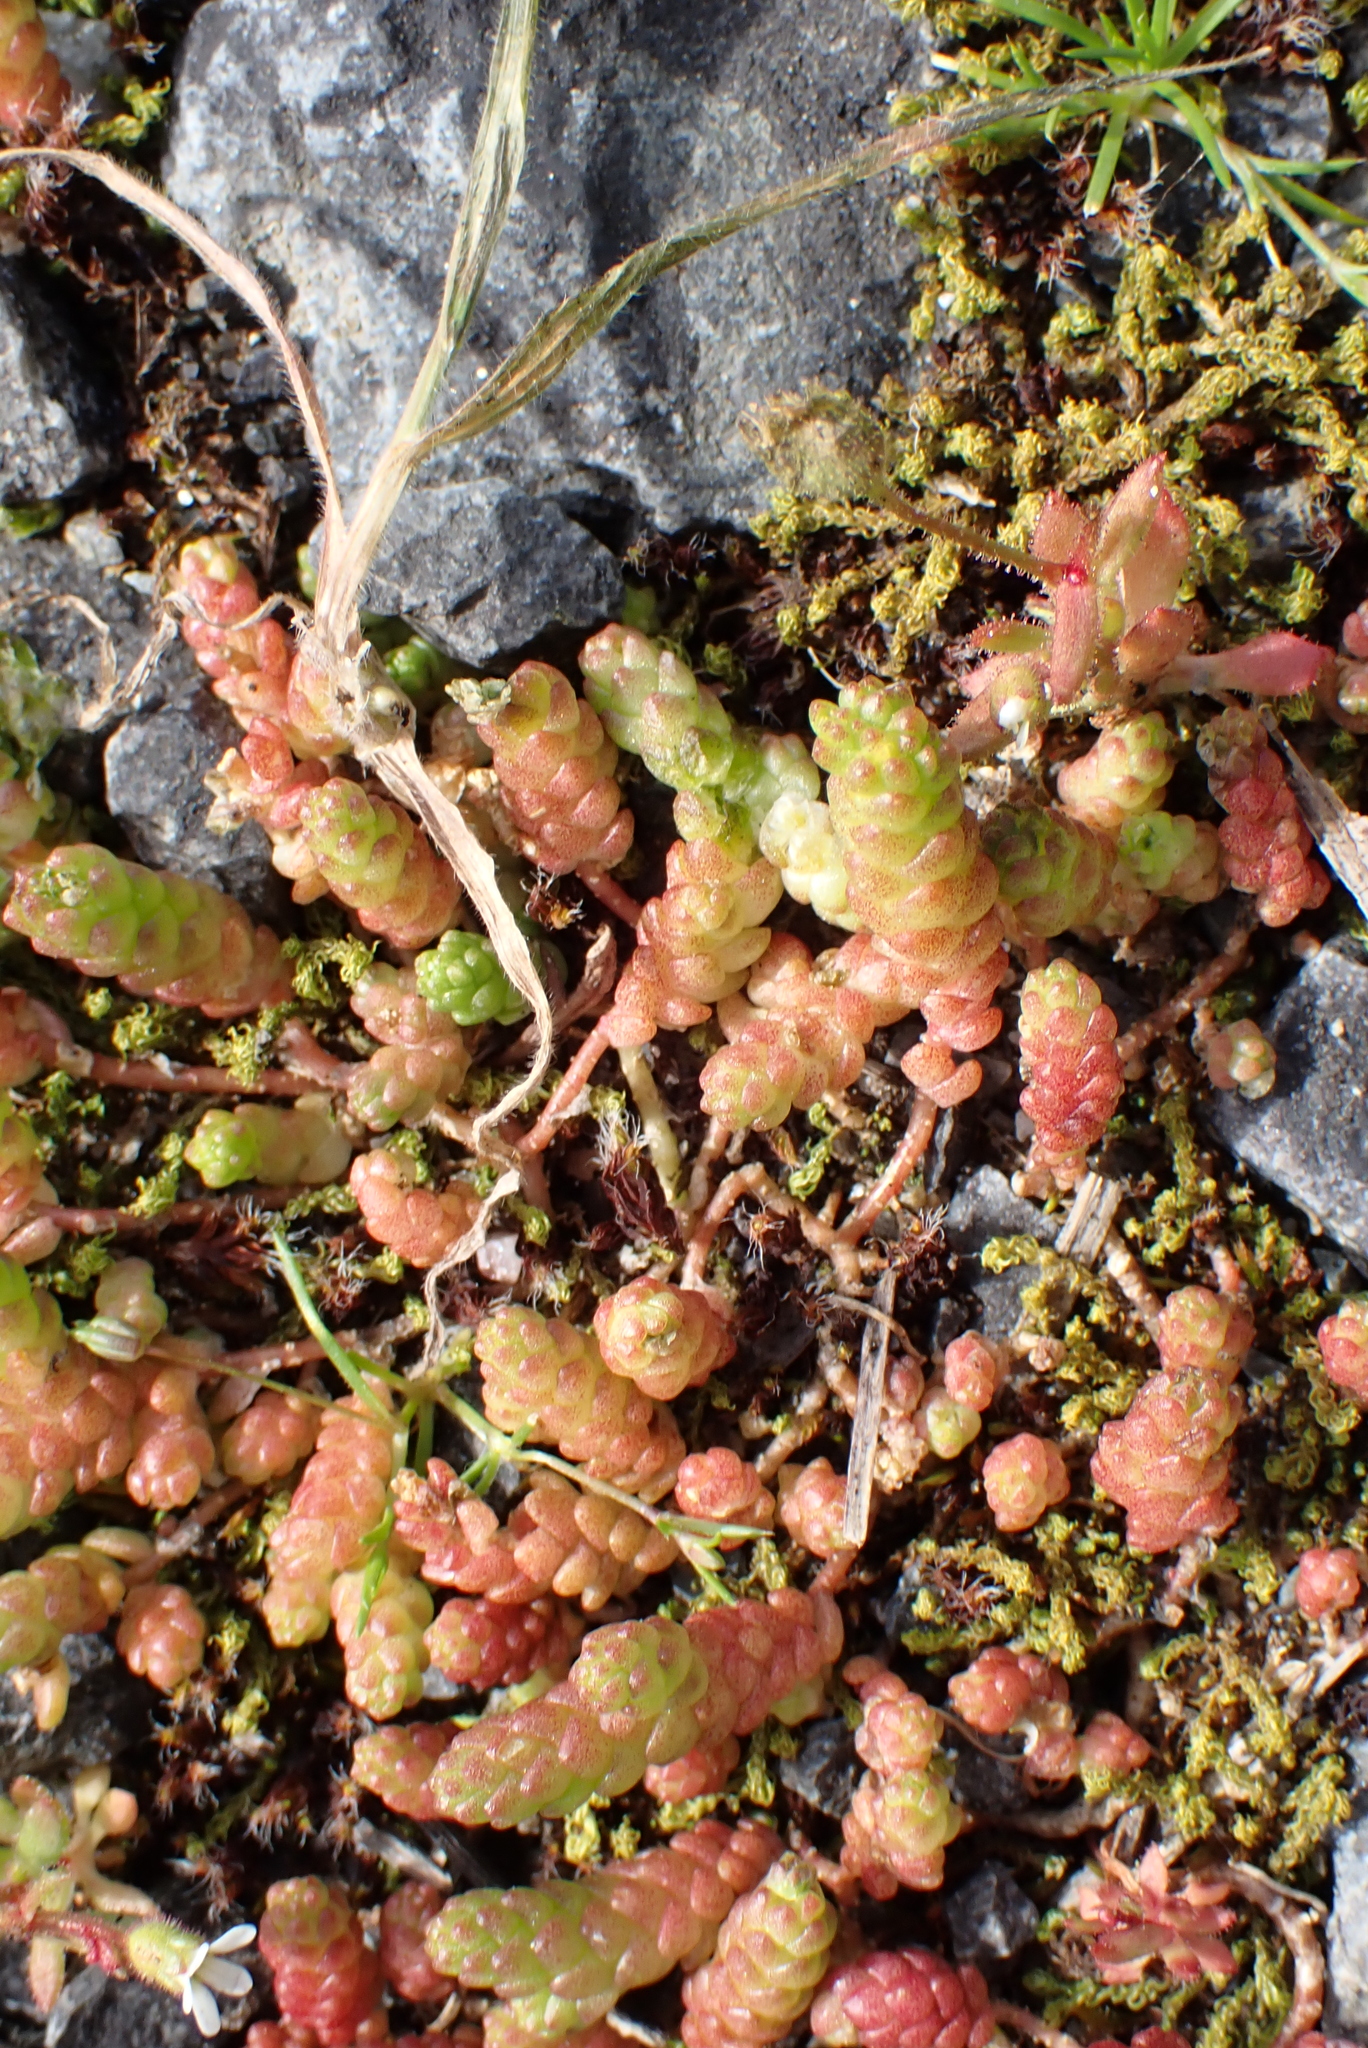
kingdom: Plantae
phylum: Tracheophyta
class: Magnoliopsida
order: Saxifragales
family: Crassulaceae
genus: Sedum
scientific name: Sedum acre
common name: Biting stonecrop
